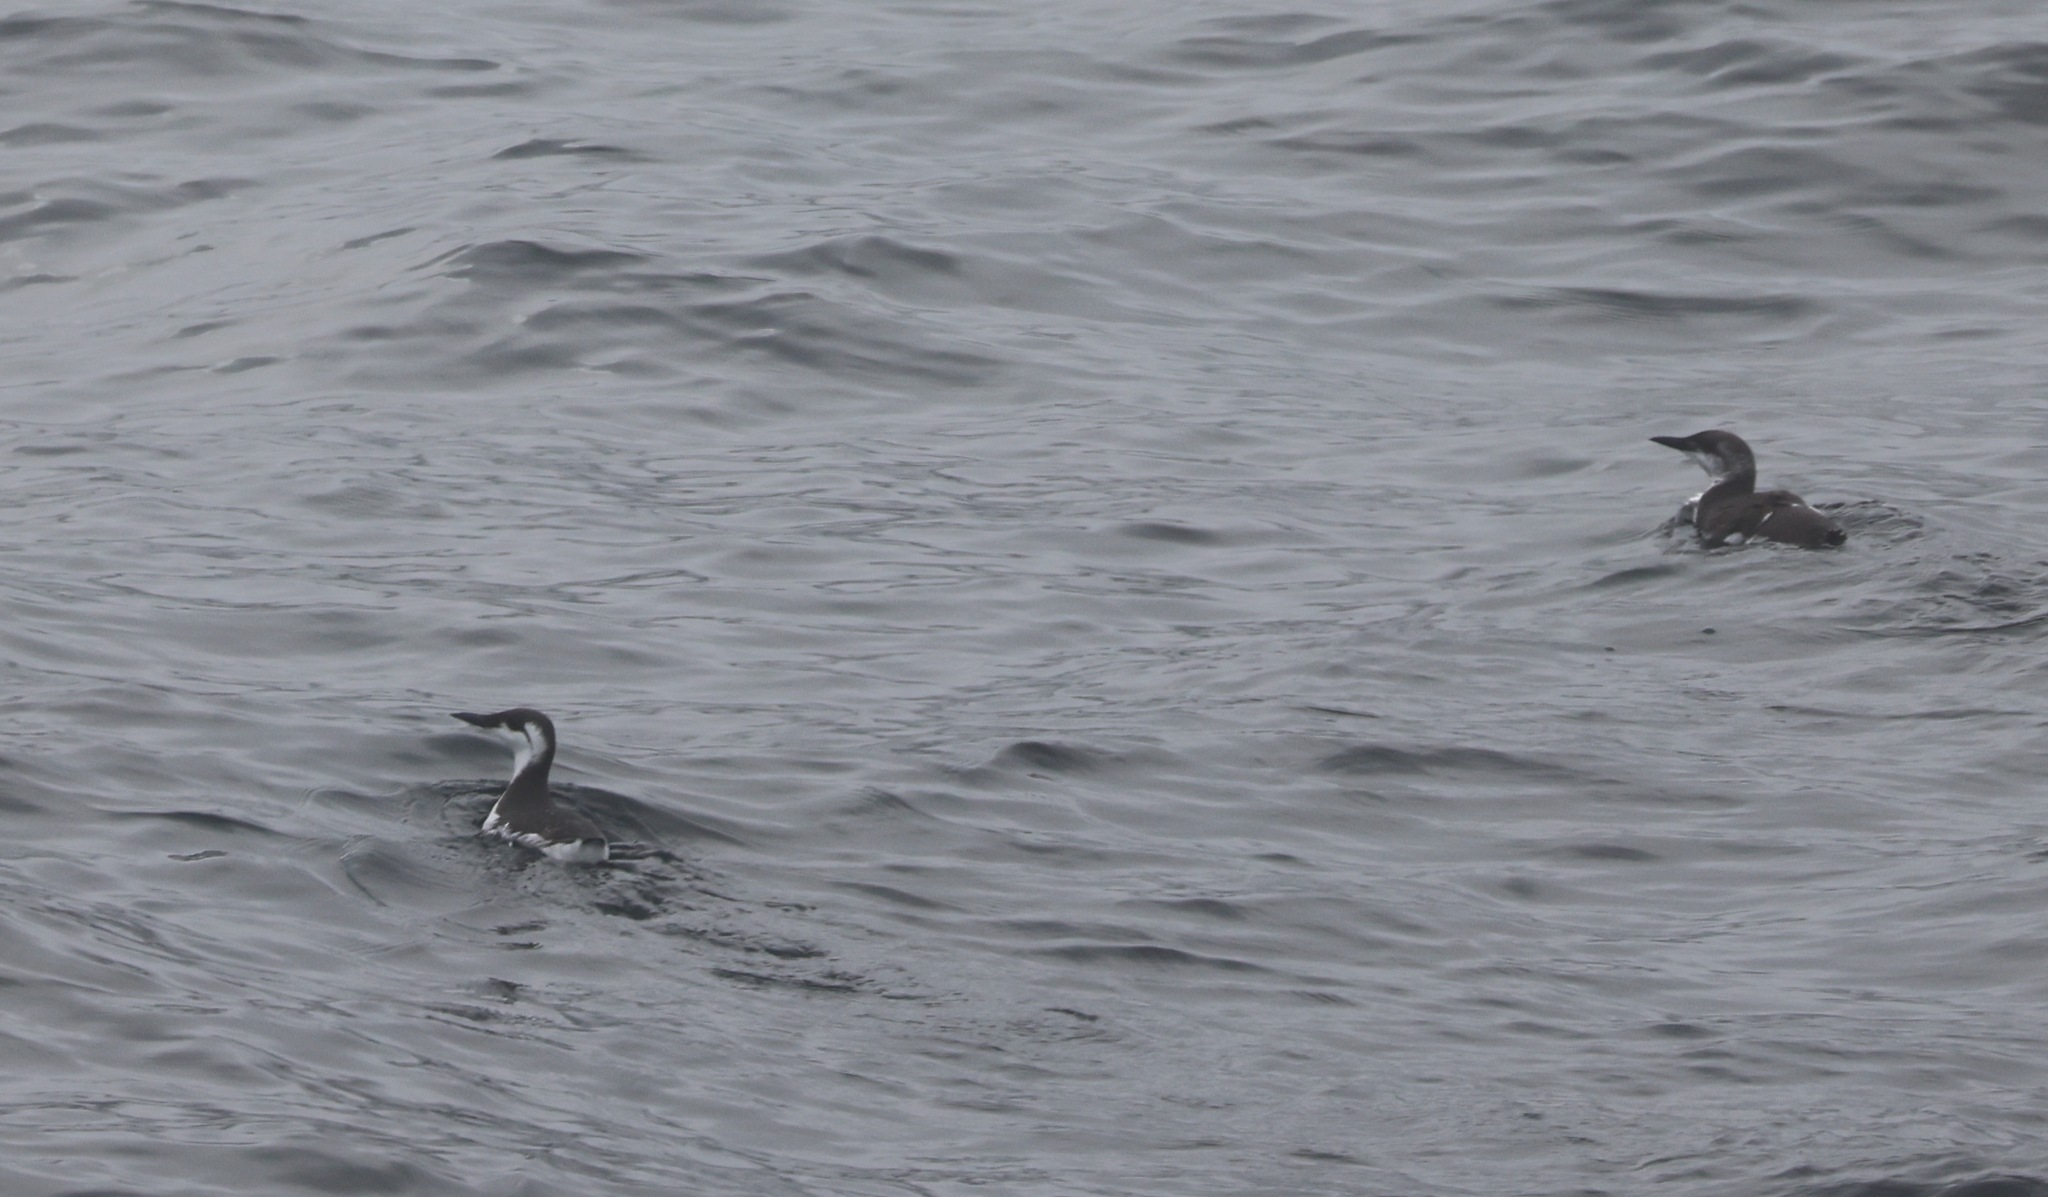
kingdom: Animalia
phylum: Chordata
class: Aves
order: Charadriiformes
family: Alcidae
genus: Uria
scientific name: Uria aalge
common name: Common murre
